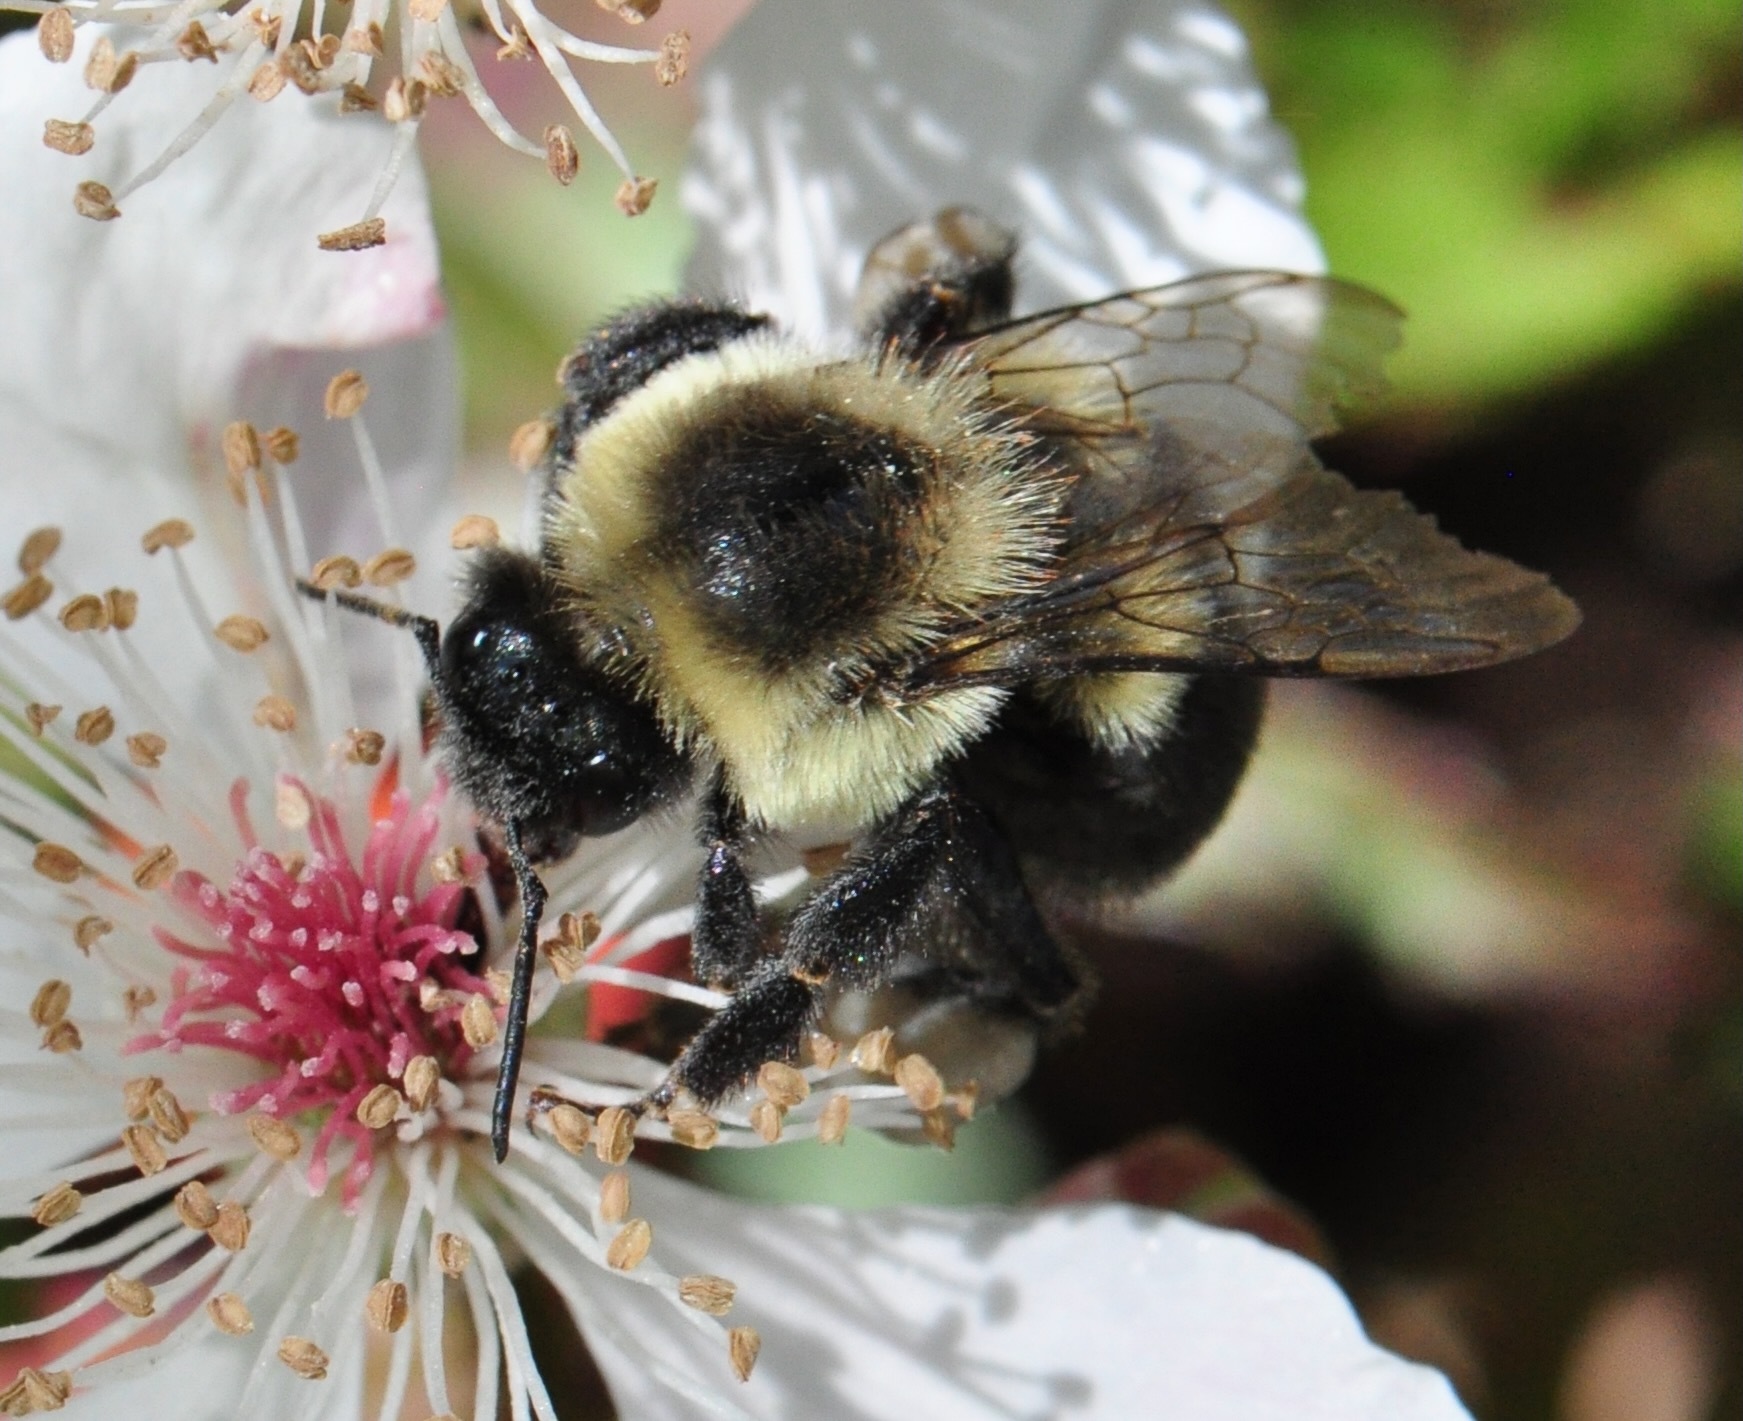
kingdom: Animalia
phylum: Arthropoda
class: Insecta
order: Hymenoptera
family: Apidae
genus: Bombus
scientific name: Bombus impatiens
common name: Common eastern bumble bee
